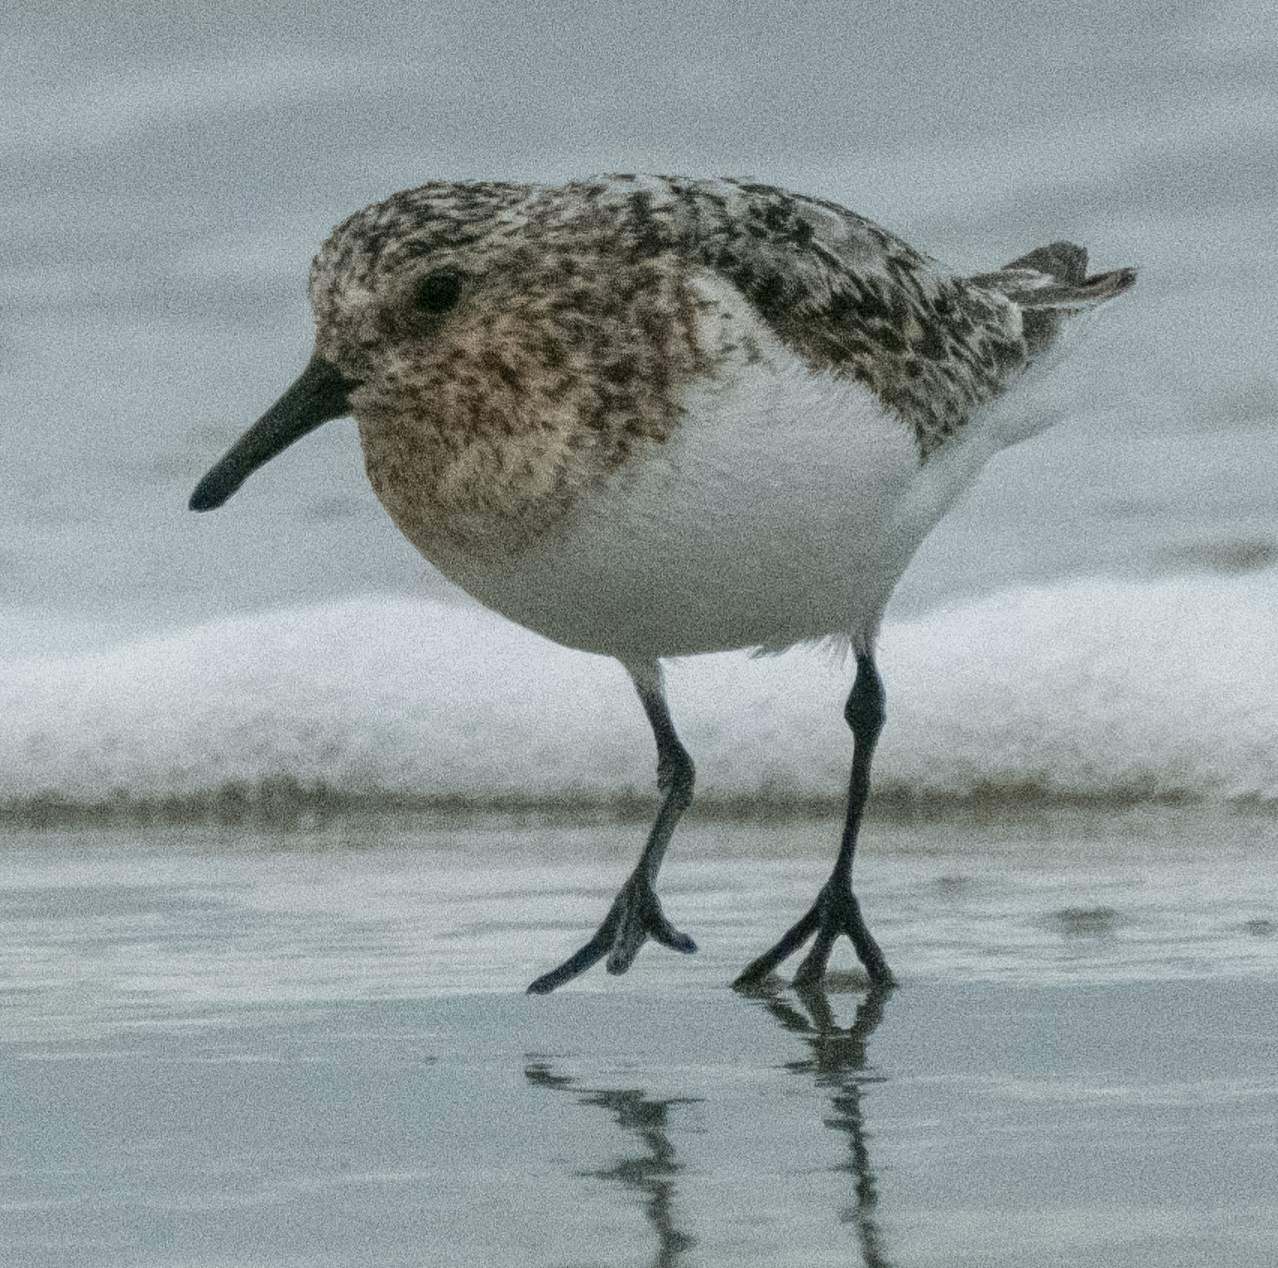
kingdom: Animalia
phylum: Chordata
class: Aves
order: Charadriiformes
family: Scolopacidae
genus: Calidris
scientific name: Calidris alba
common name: Sanderling
